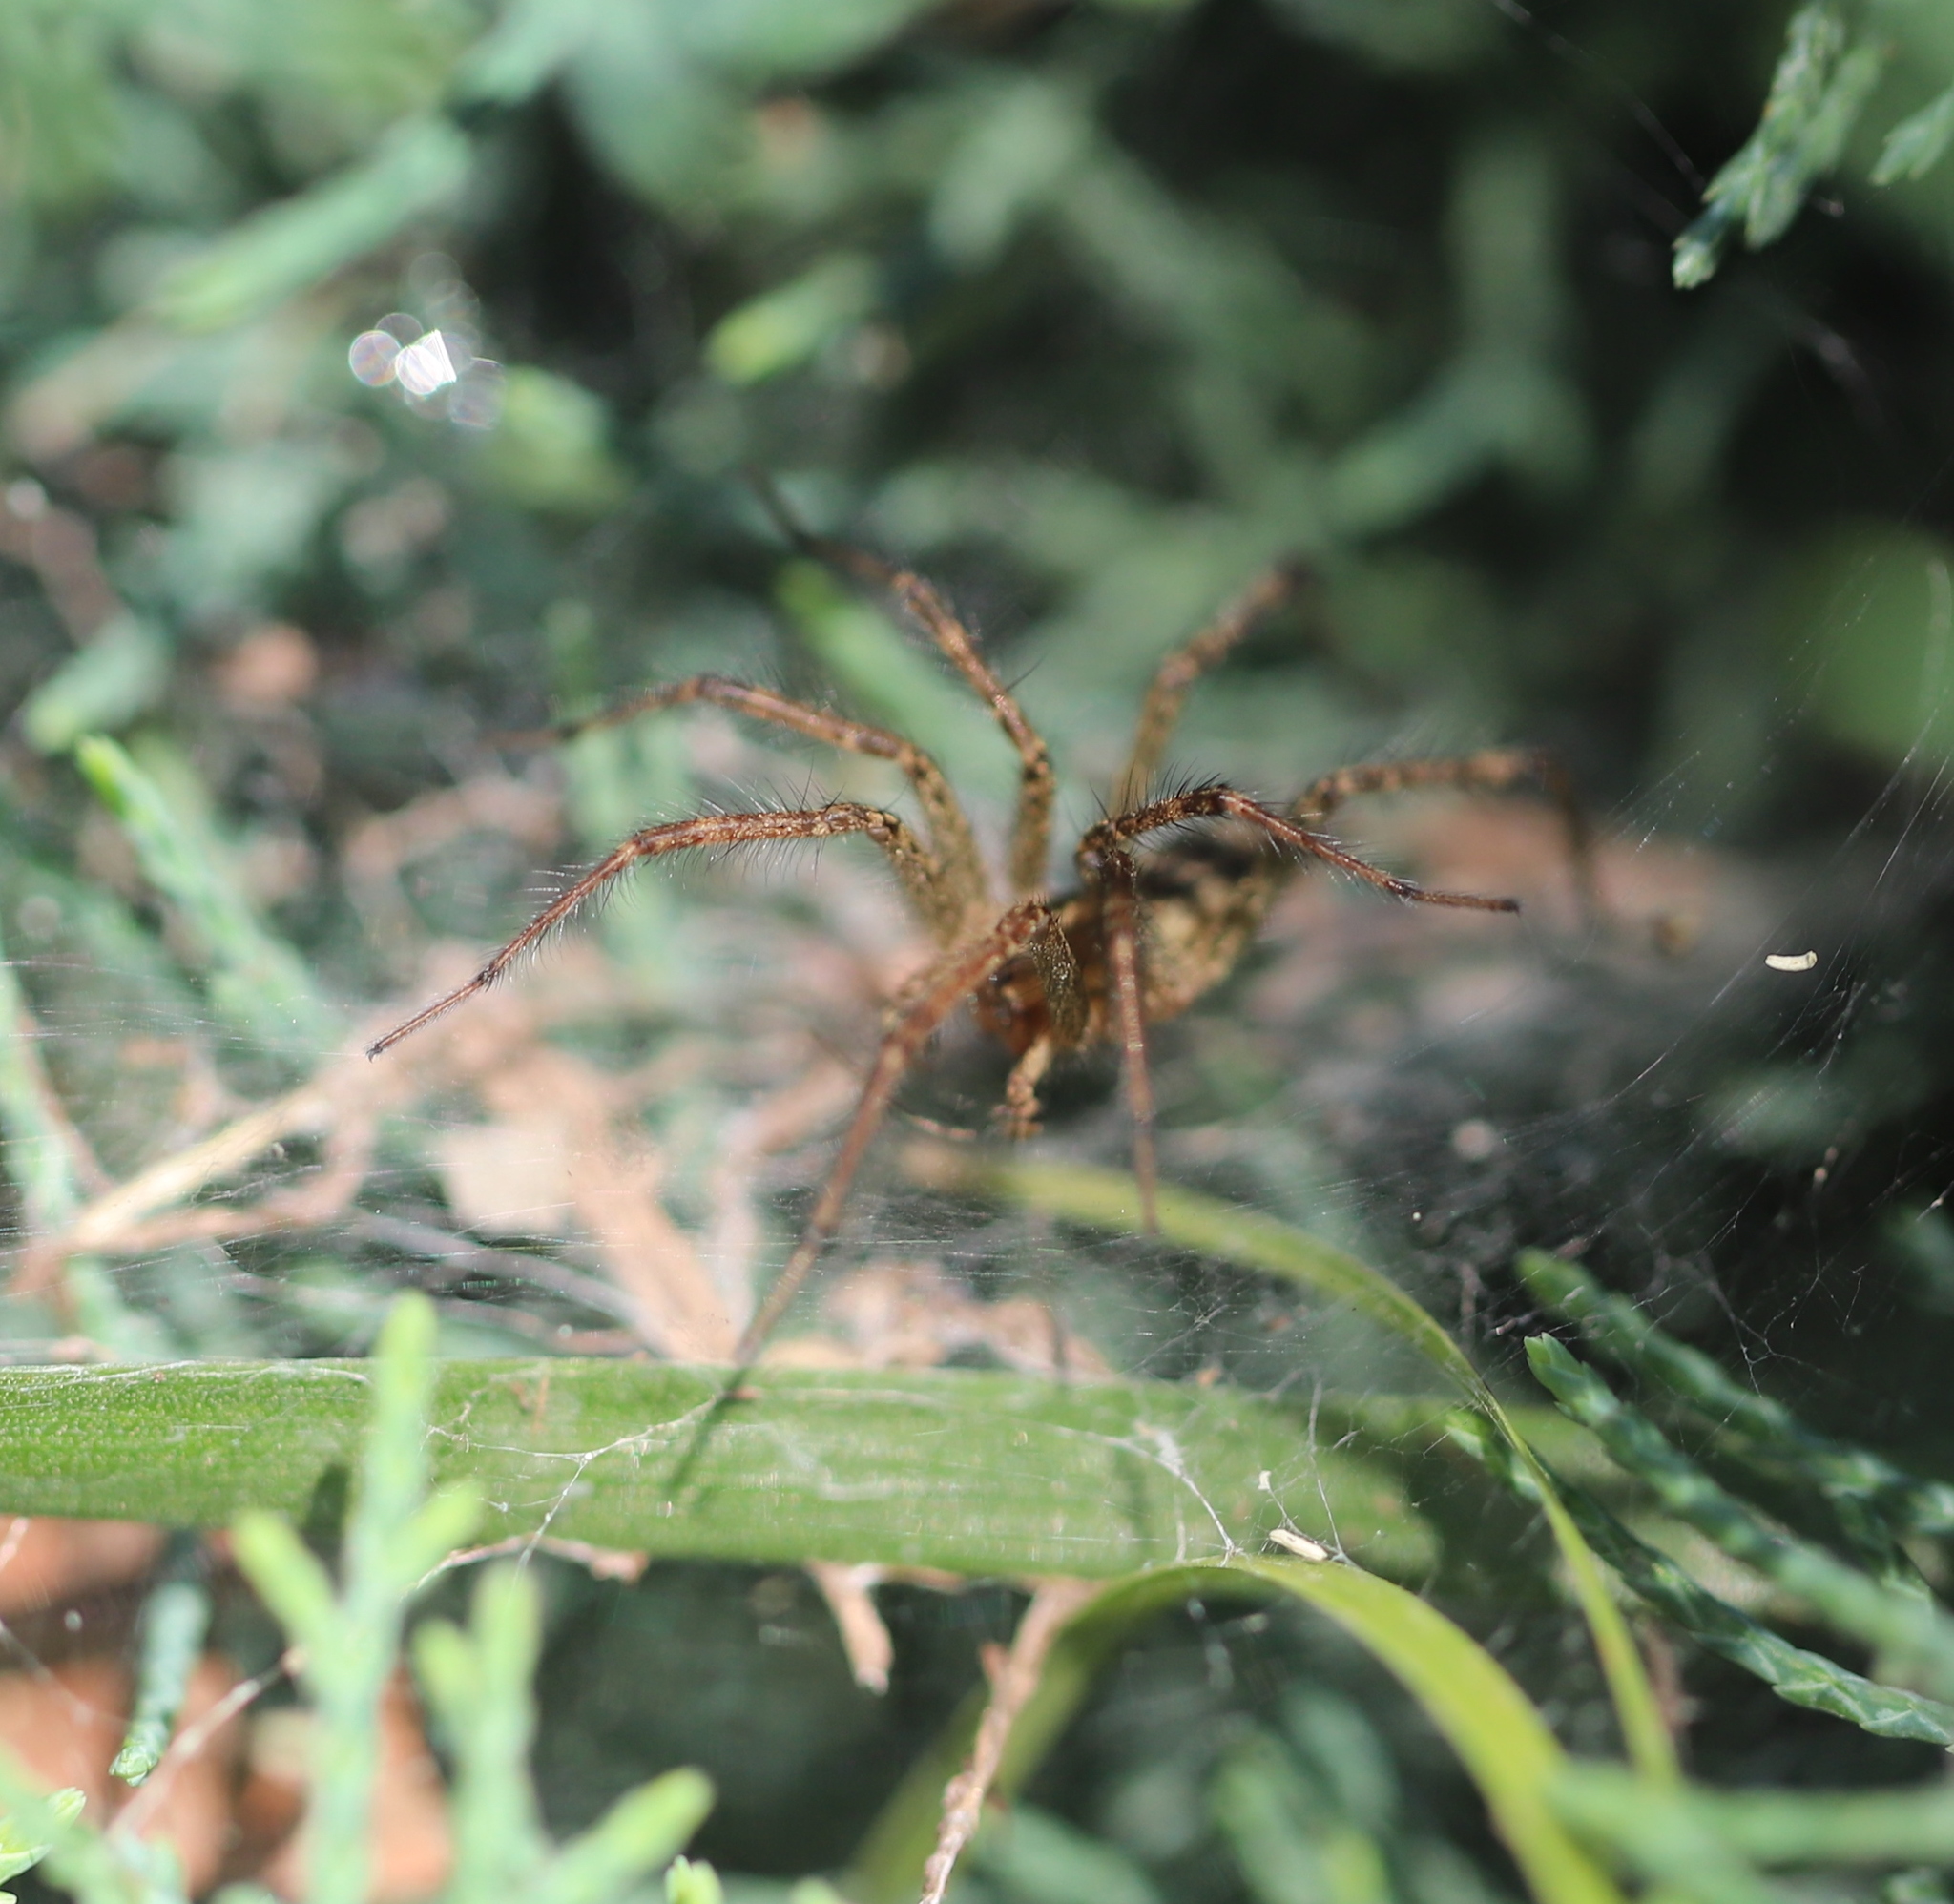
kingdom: Animalia
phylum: Arthropoda
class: Arachnida
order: Araneae
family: Agelenidae
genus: Agelenopsis
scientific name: Agelenopsis
